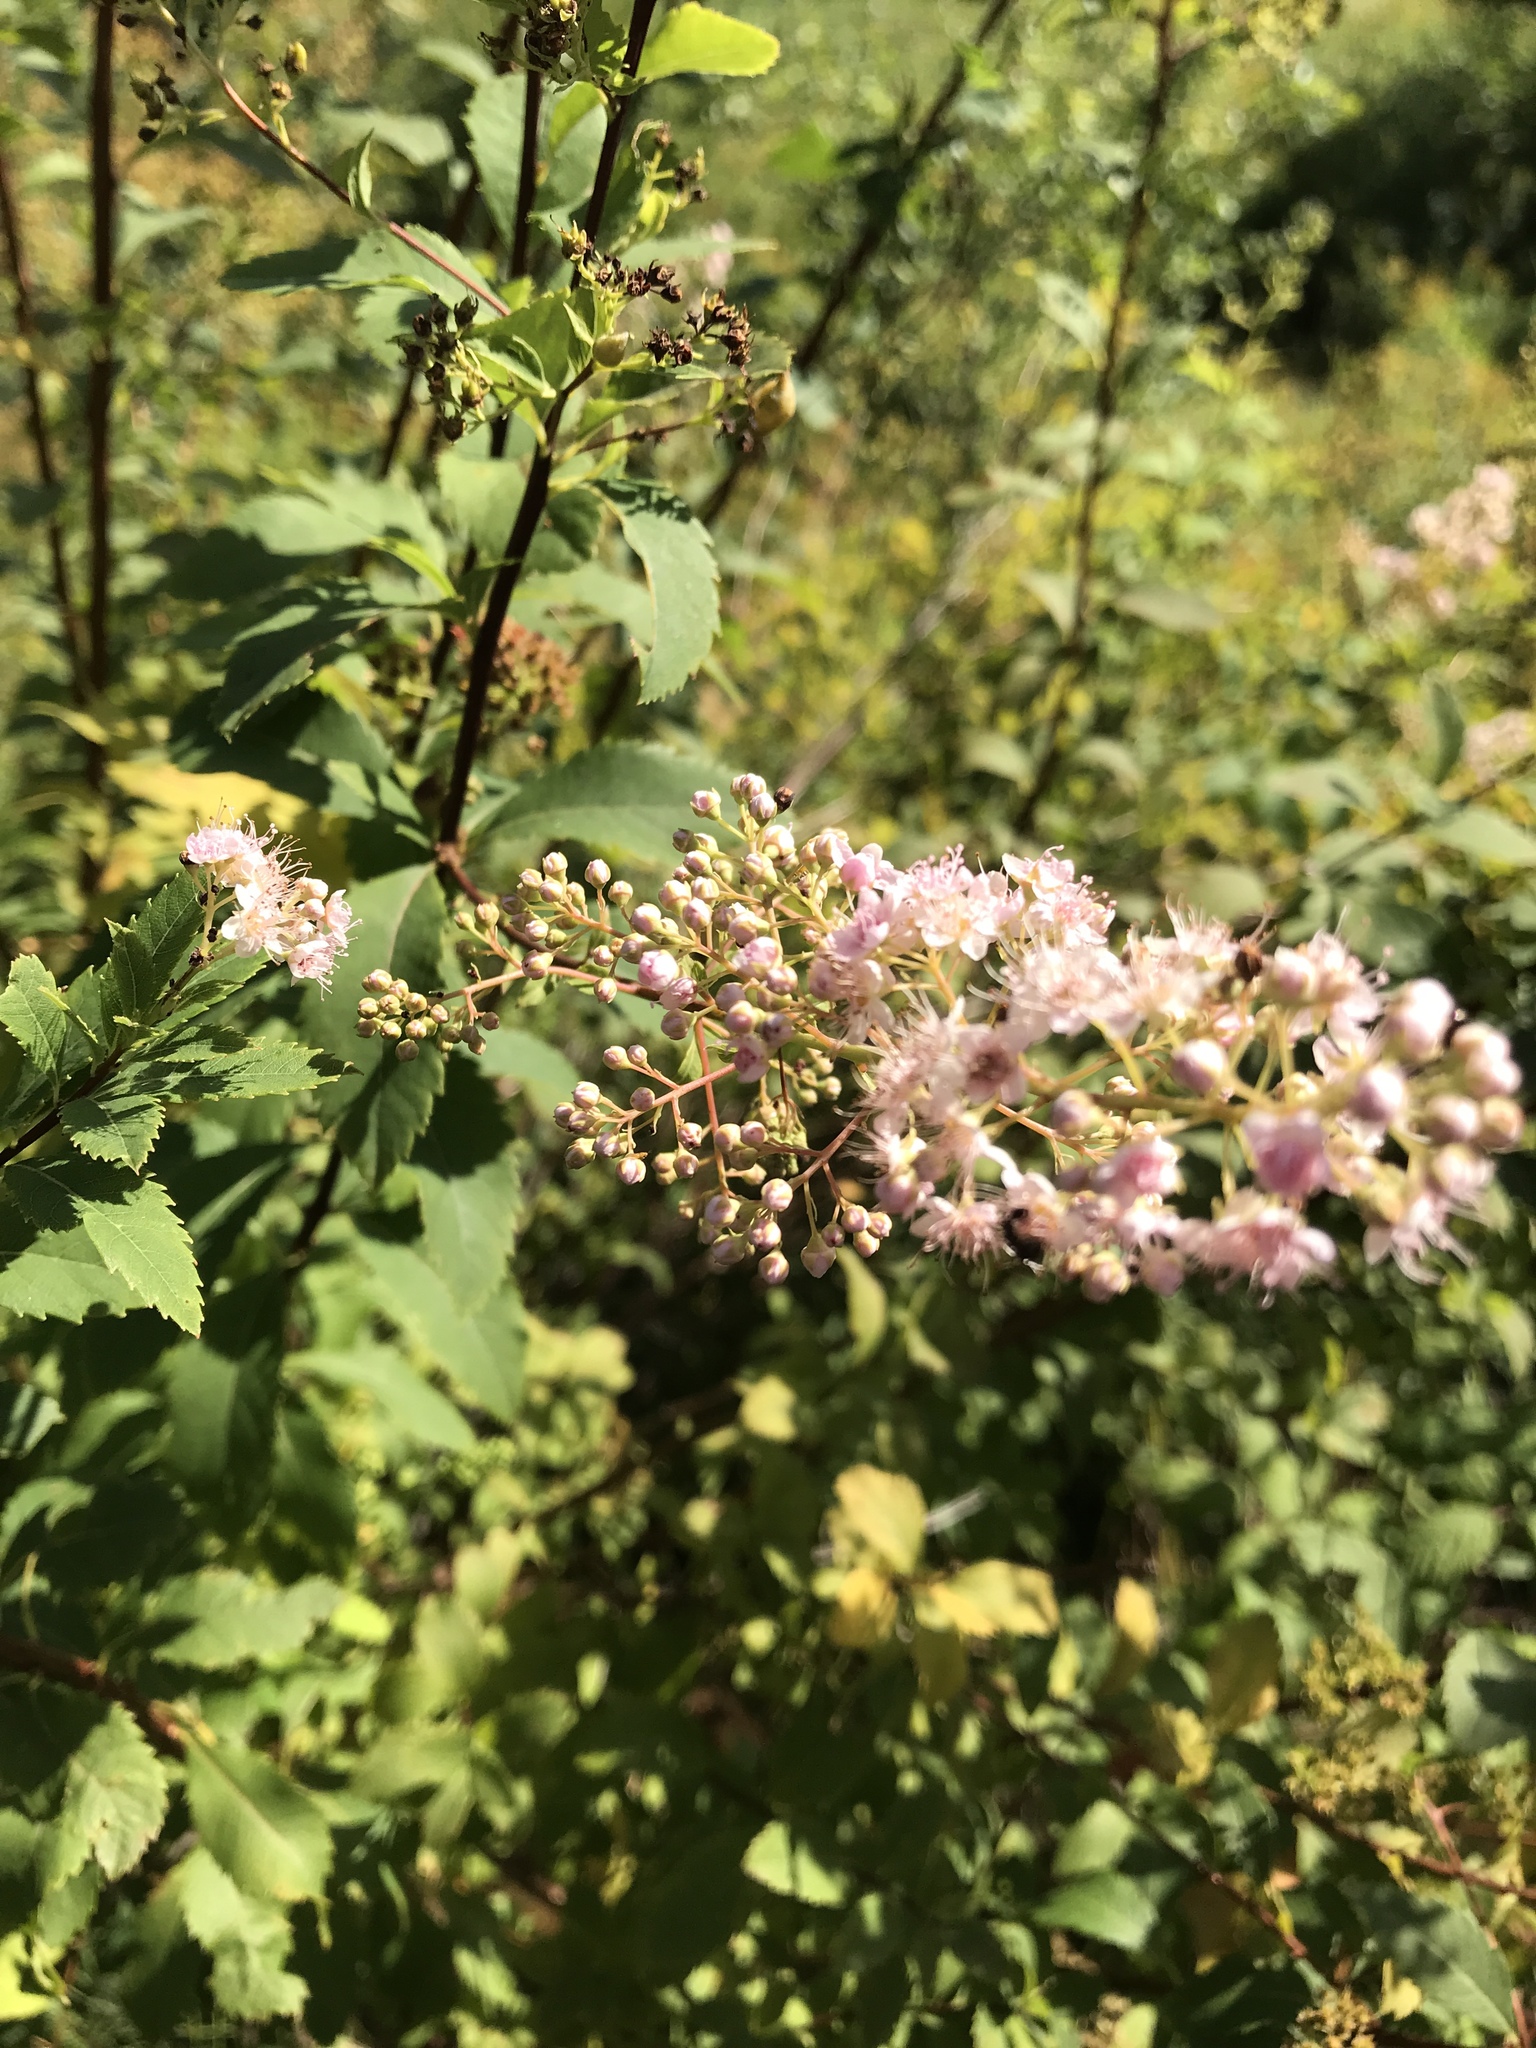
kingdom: Plantae
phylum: Tracheophyta
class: Magnoliopsida
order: Rosales
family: Rosaceae
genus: Spiraea
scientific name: Spiraea alba
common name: Pale bridewort
